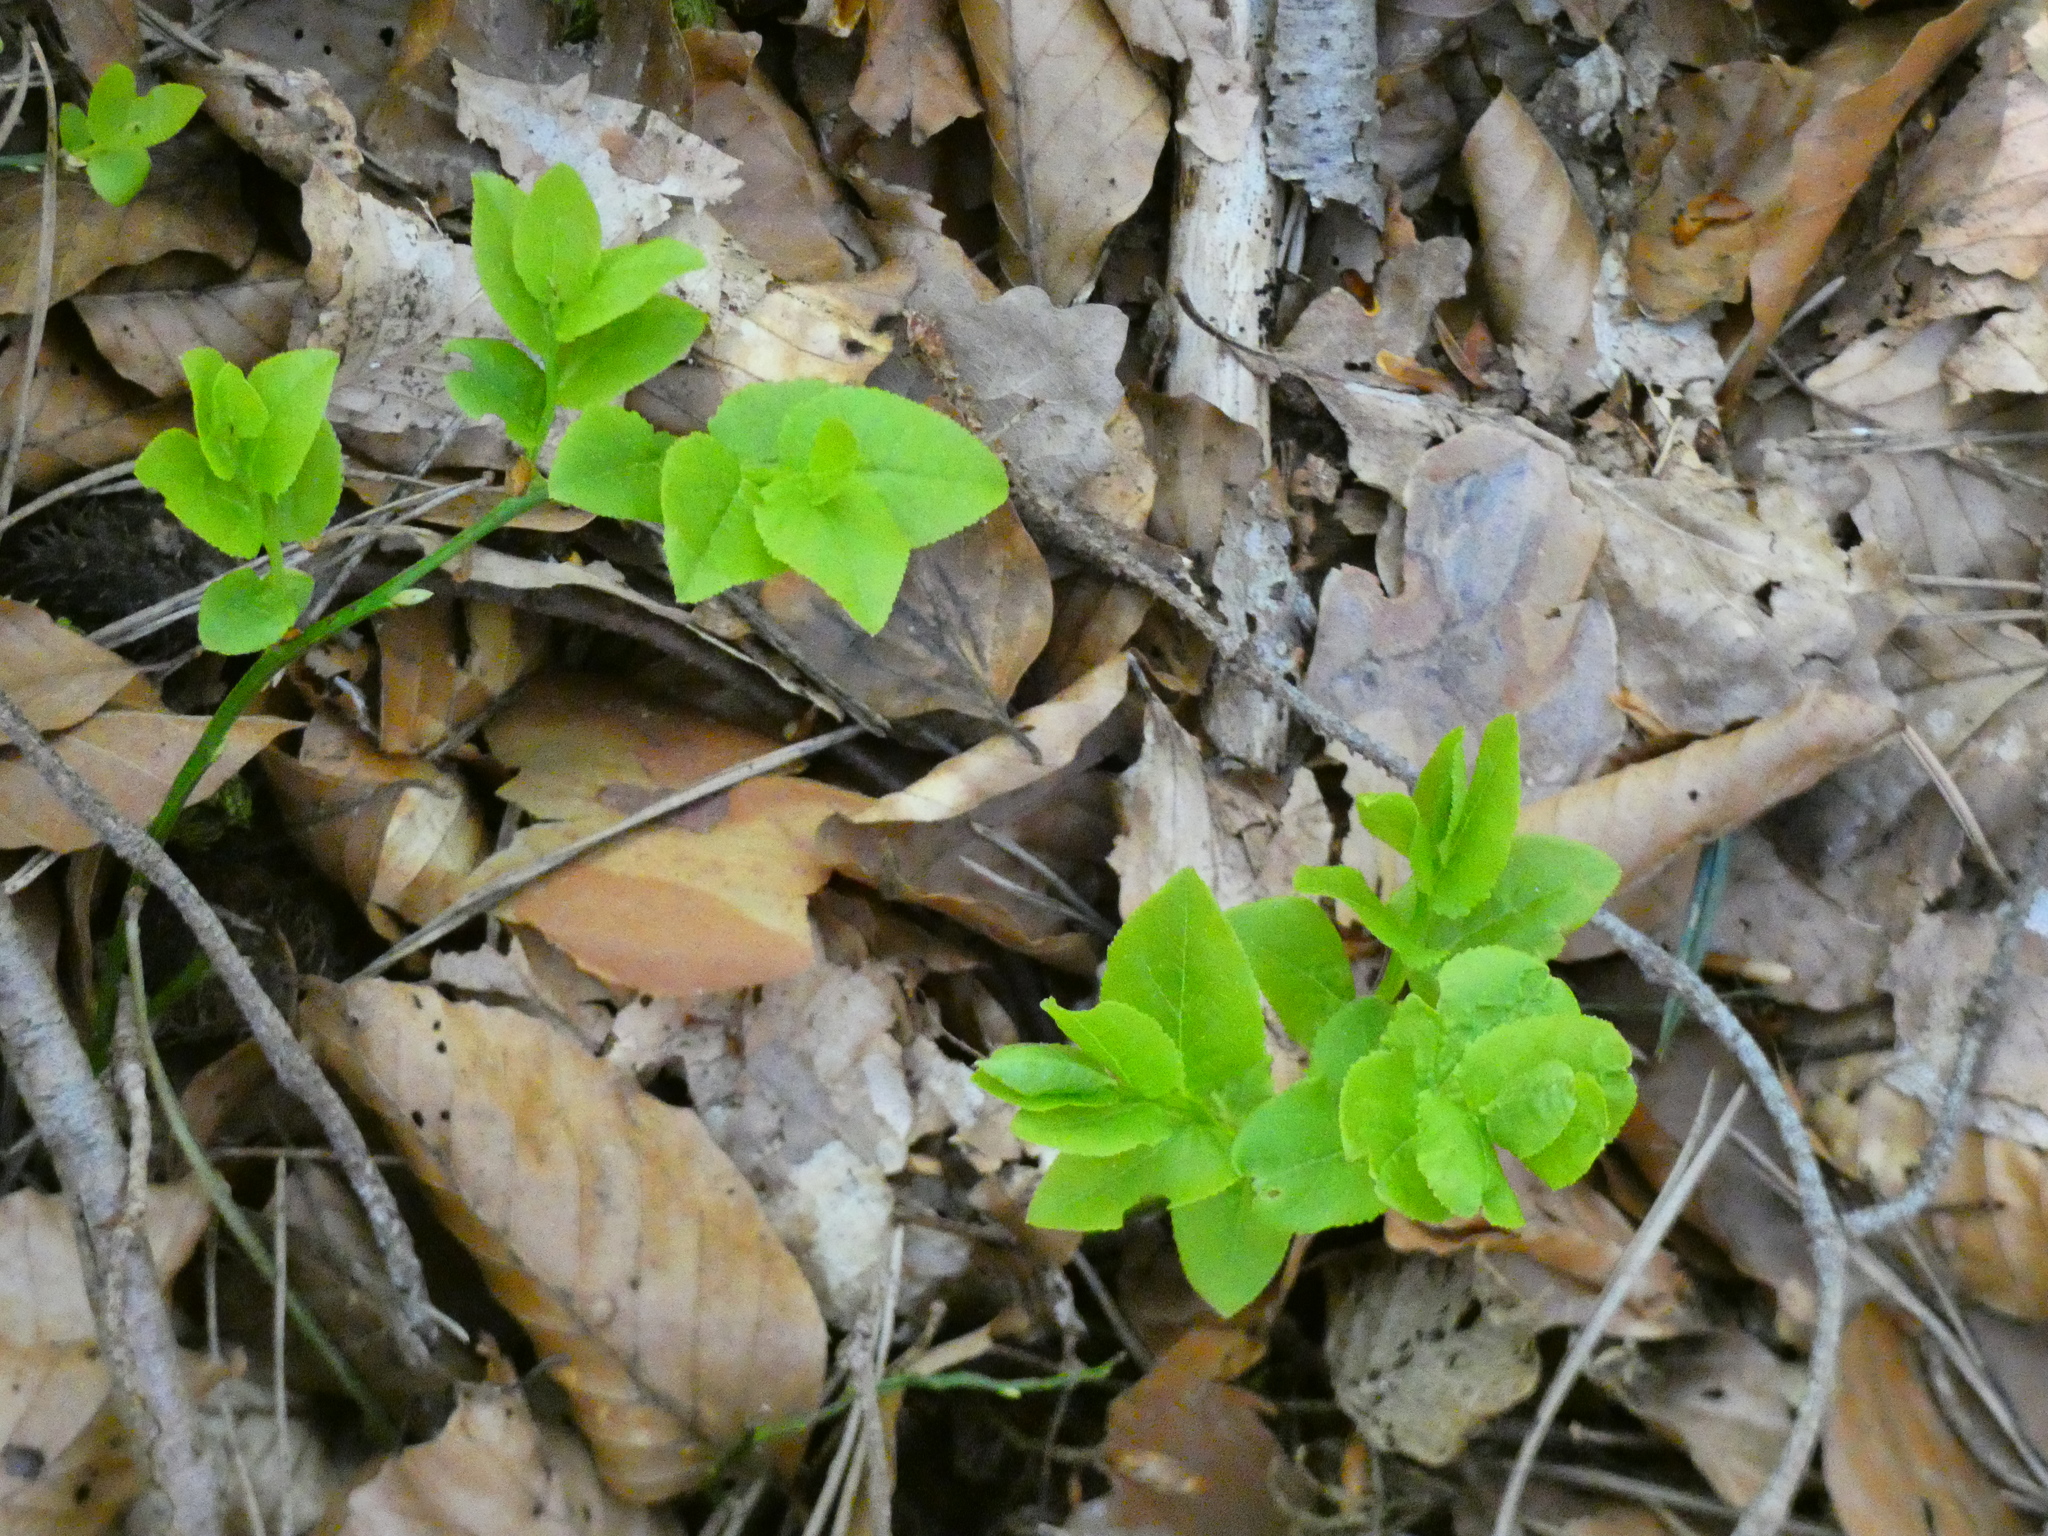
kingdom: Plantae
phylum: Tracheophyta
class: Magnoliopsida
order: Ericales
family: Ericaceae
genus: Vaccinium
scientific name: Vaccinium myrtillus
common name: Bilberry
